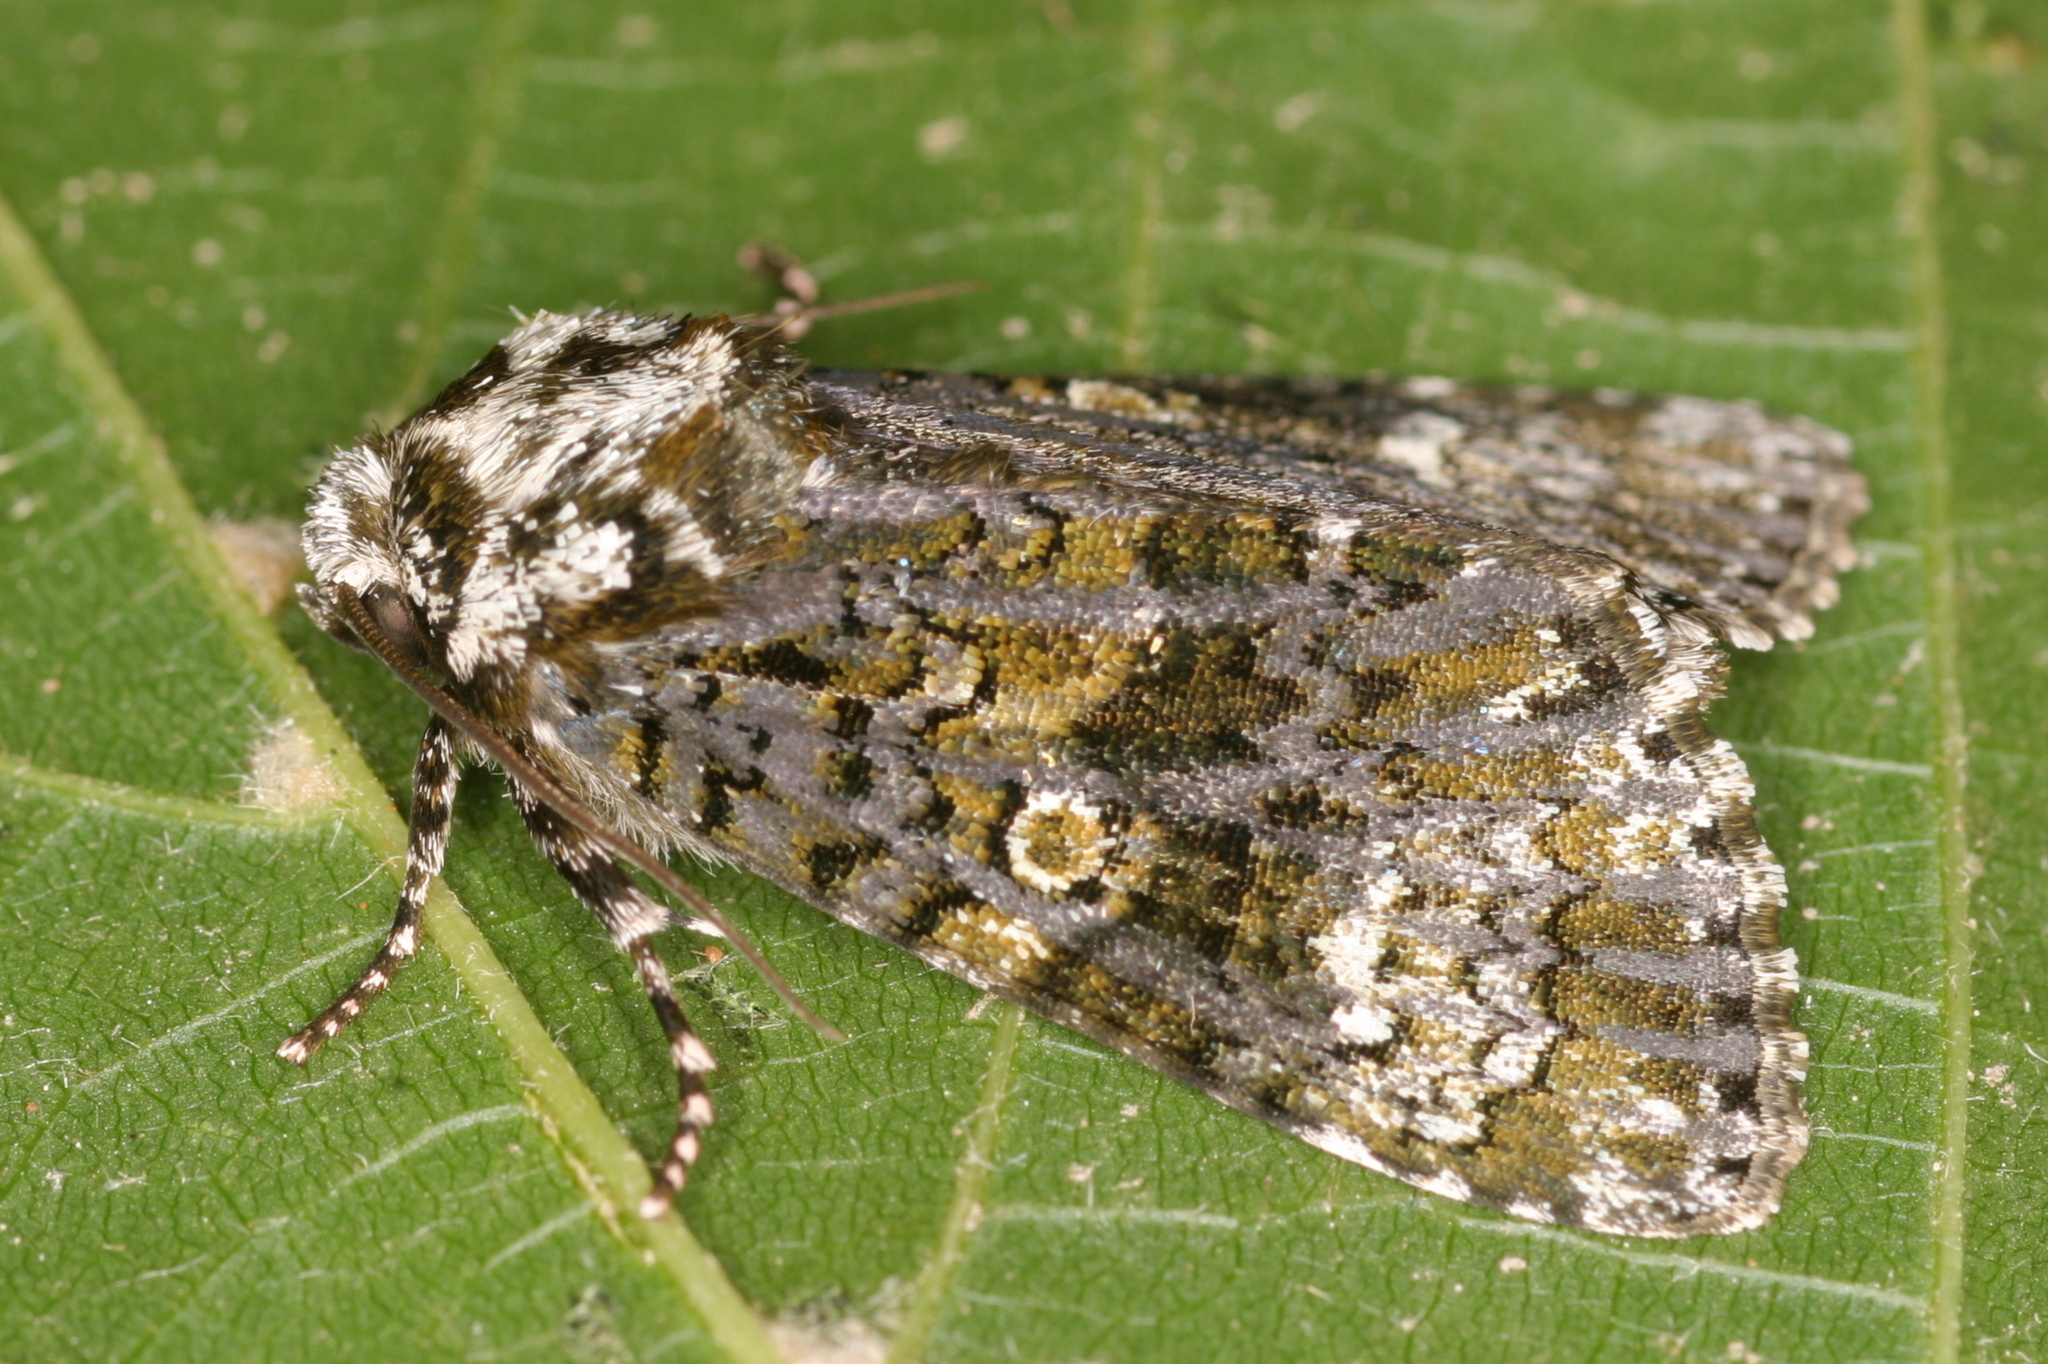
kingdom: Animalia
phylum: Arthropoda
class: Insecta
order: Lepidoptera
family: Noctuidae
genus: Craniophora
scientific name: Craniophora ligustri
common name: Coronet
